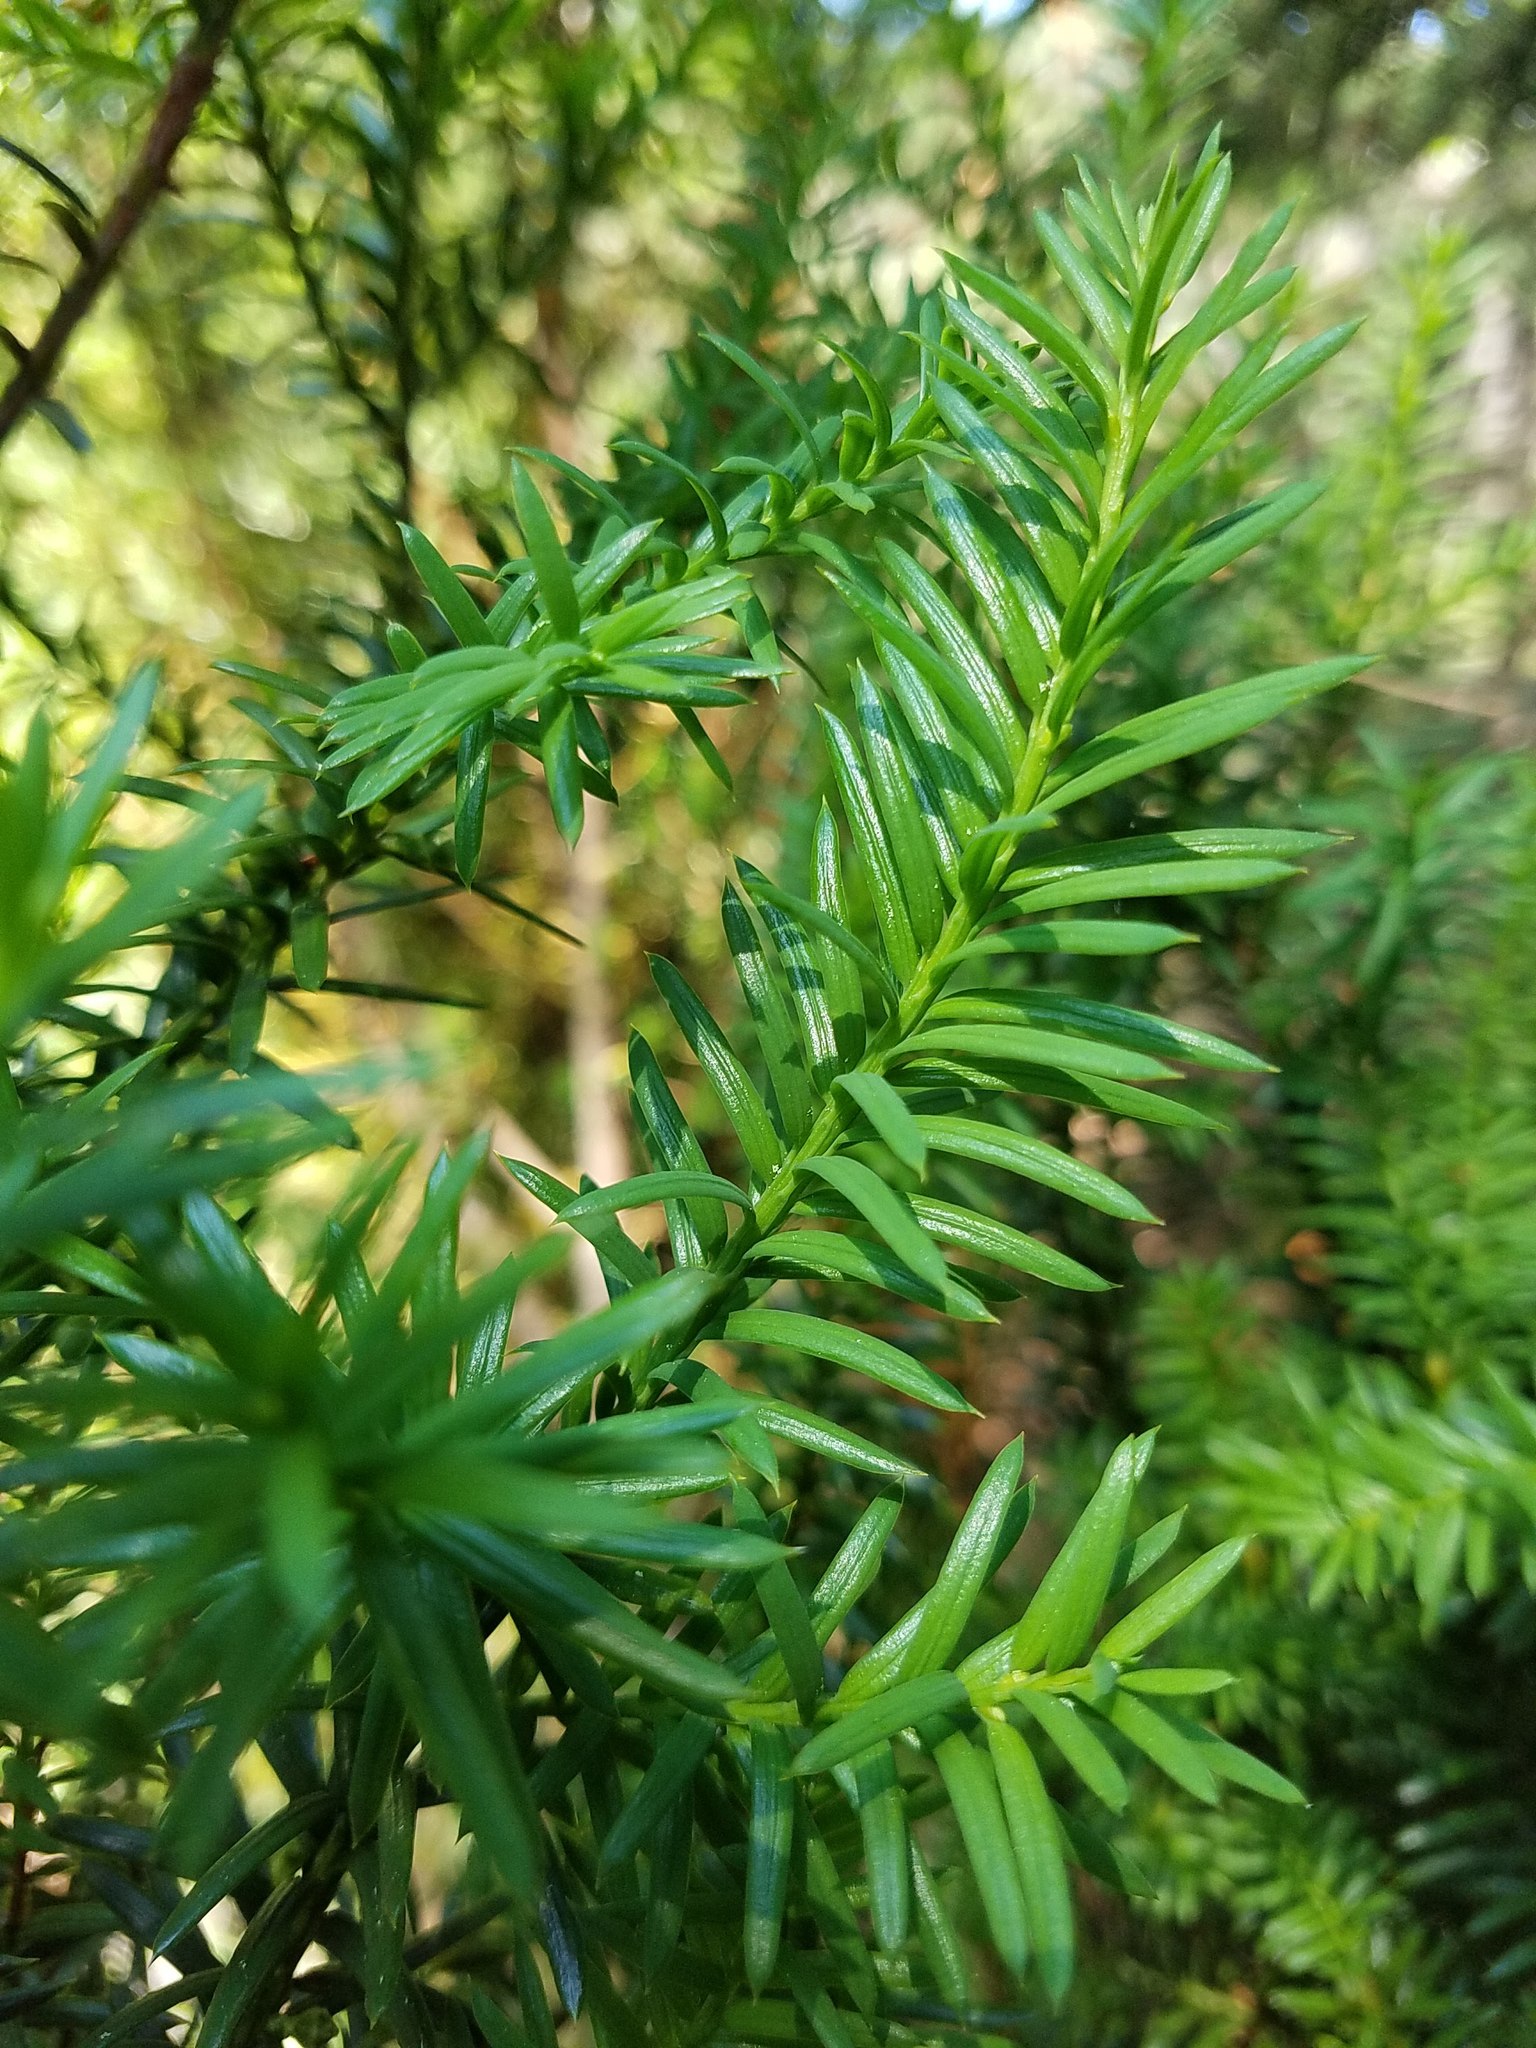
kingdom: Plantae
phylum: Tracheophyta
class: Pinopsida
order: Pinales
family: Taxaceae
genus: Taxus
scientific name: Taxus canadensis
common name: American yew
